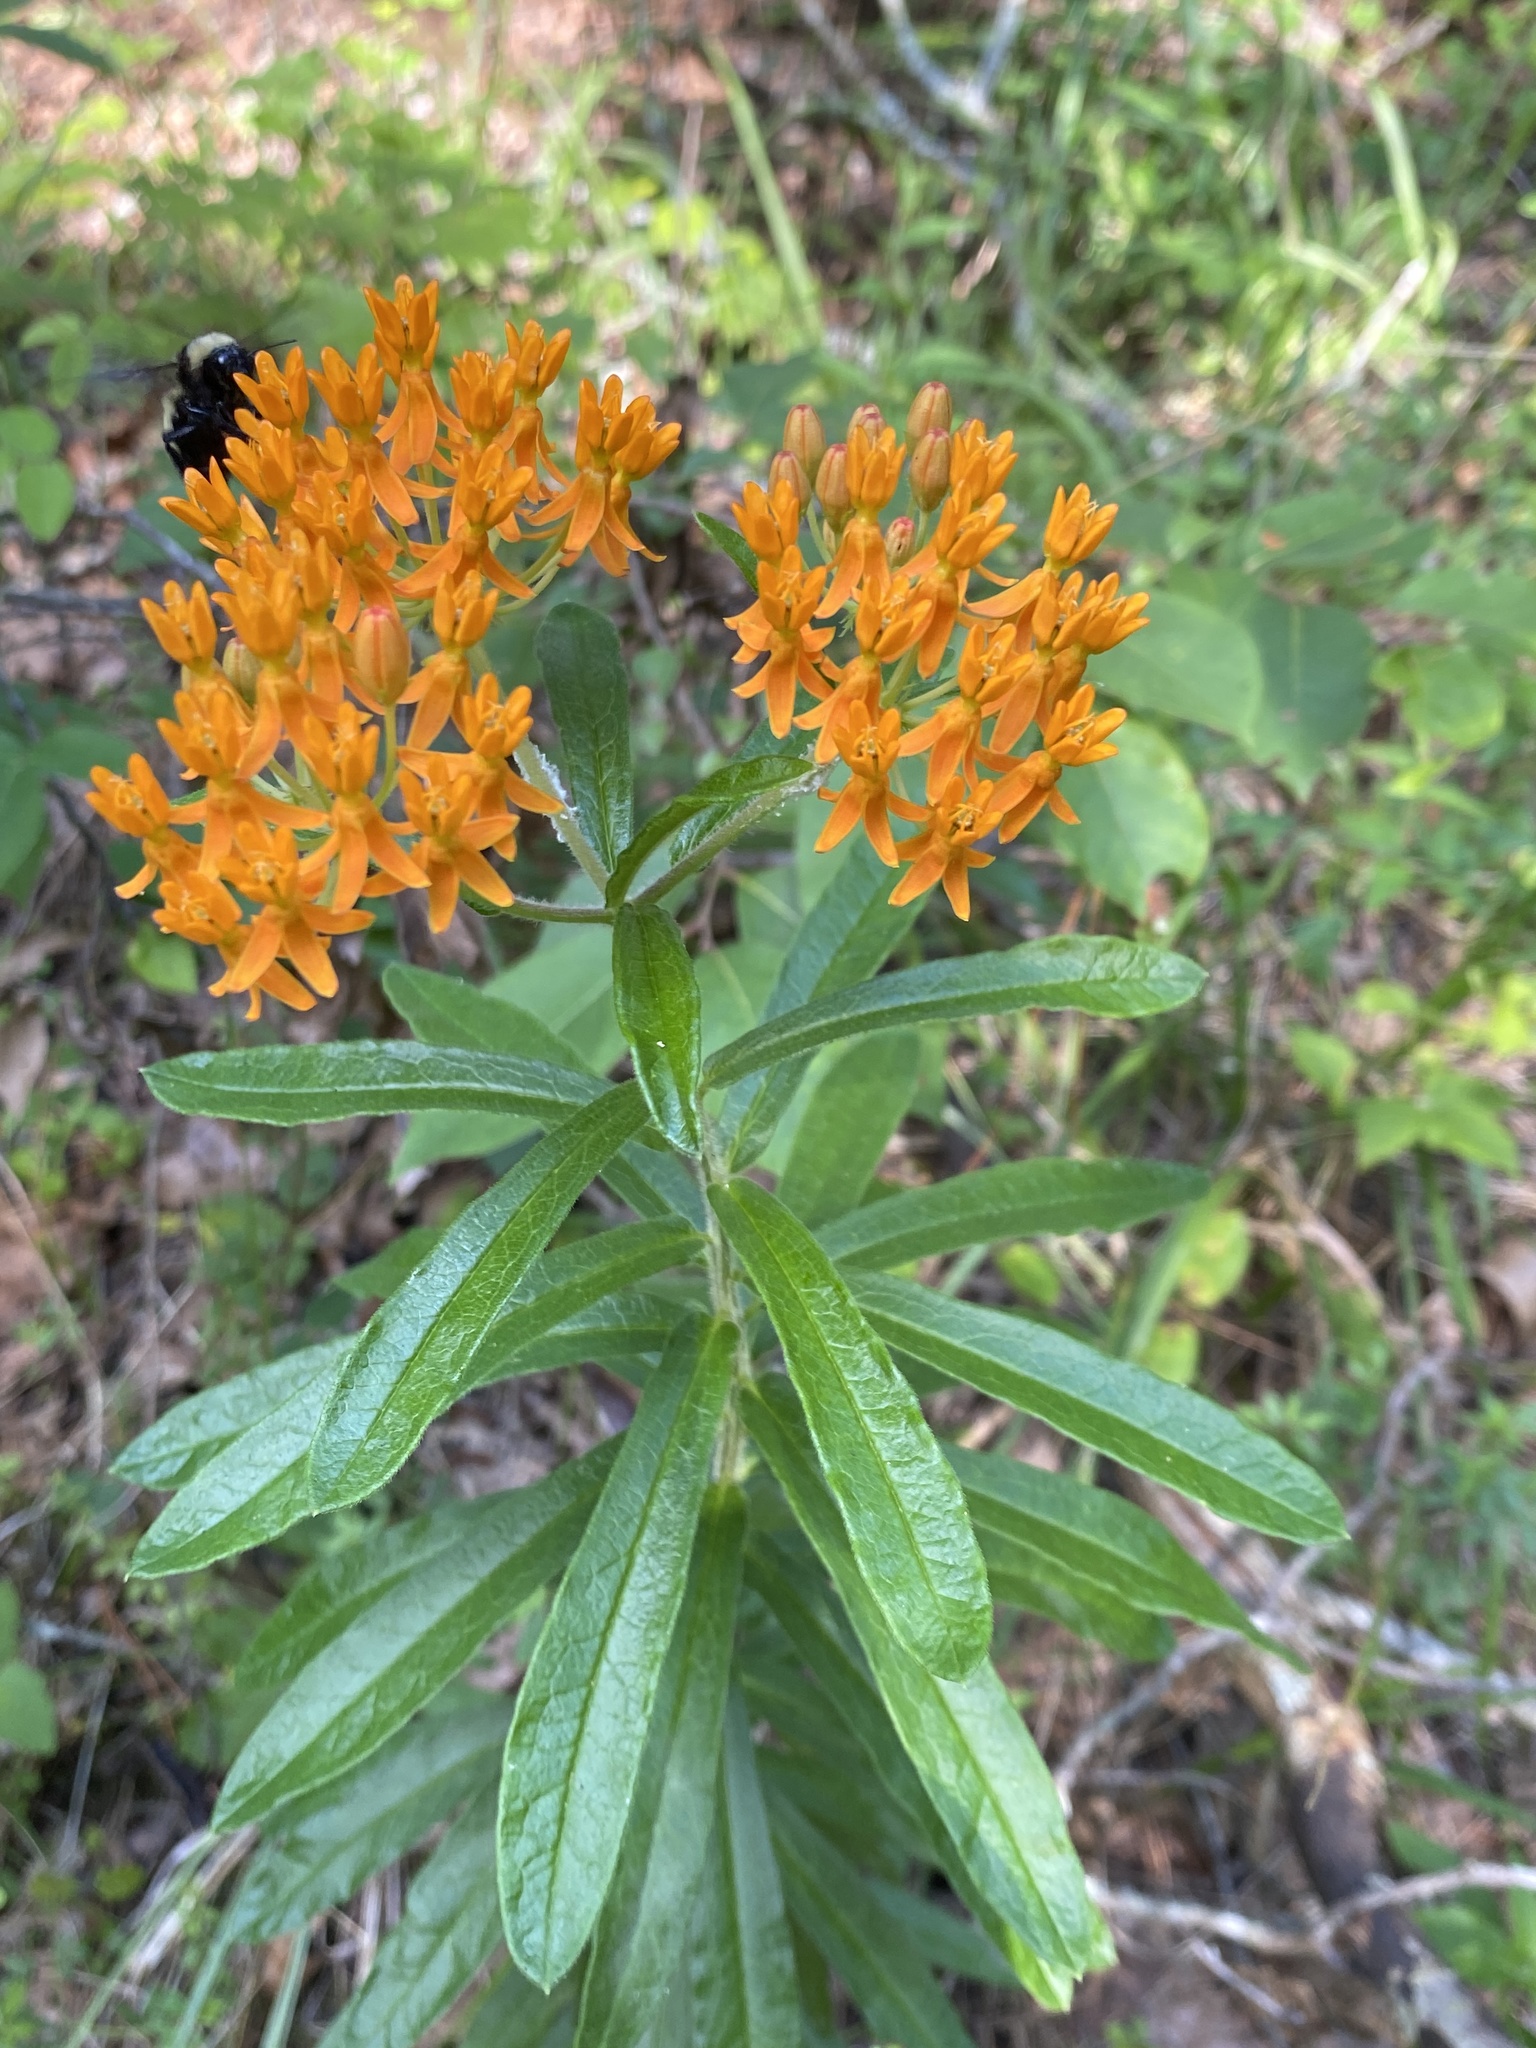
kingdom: Plantae
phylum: Tracheophyta
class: Magnoliopsida
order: Gentianales
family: Apocynaceae
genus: Asclepias
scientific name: Asclepias tuberosa
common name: Butterfly milkweed
